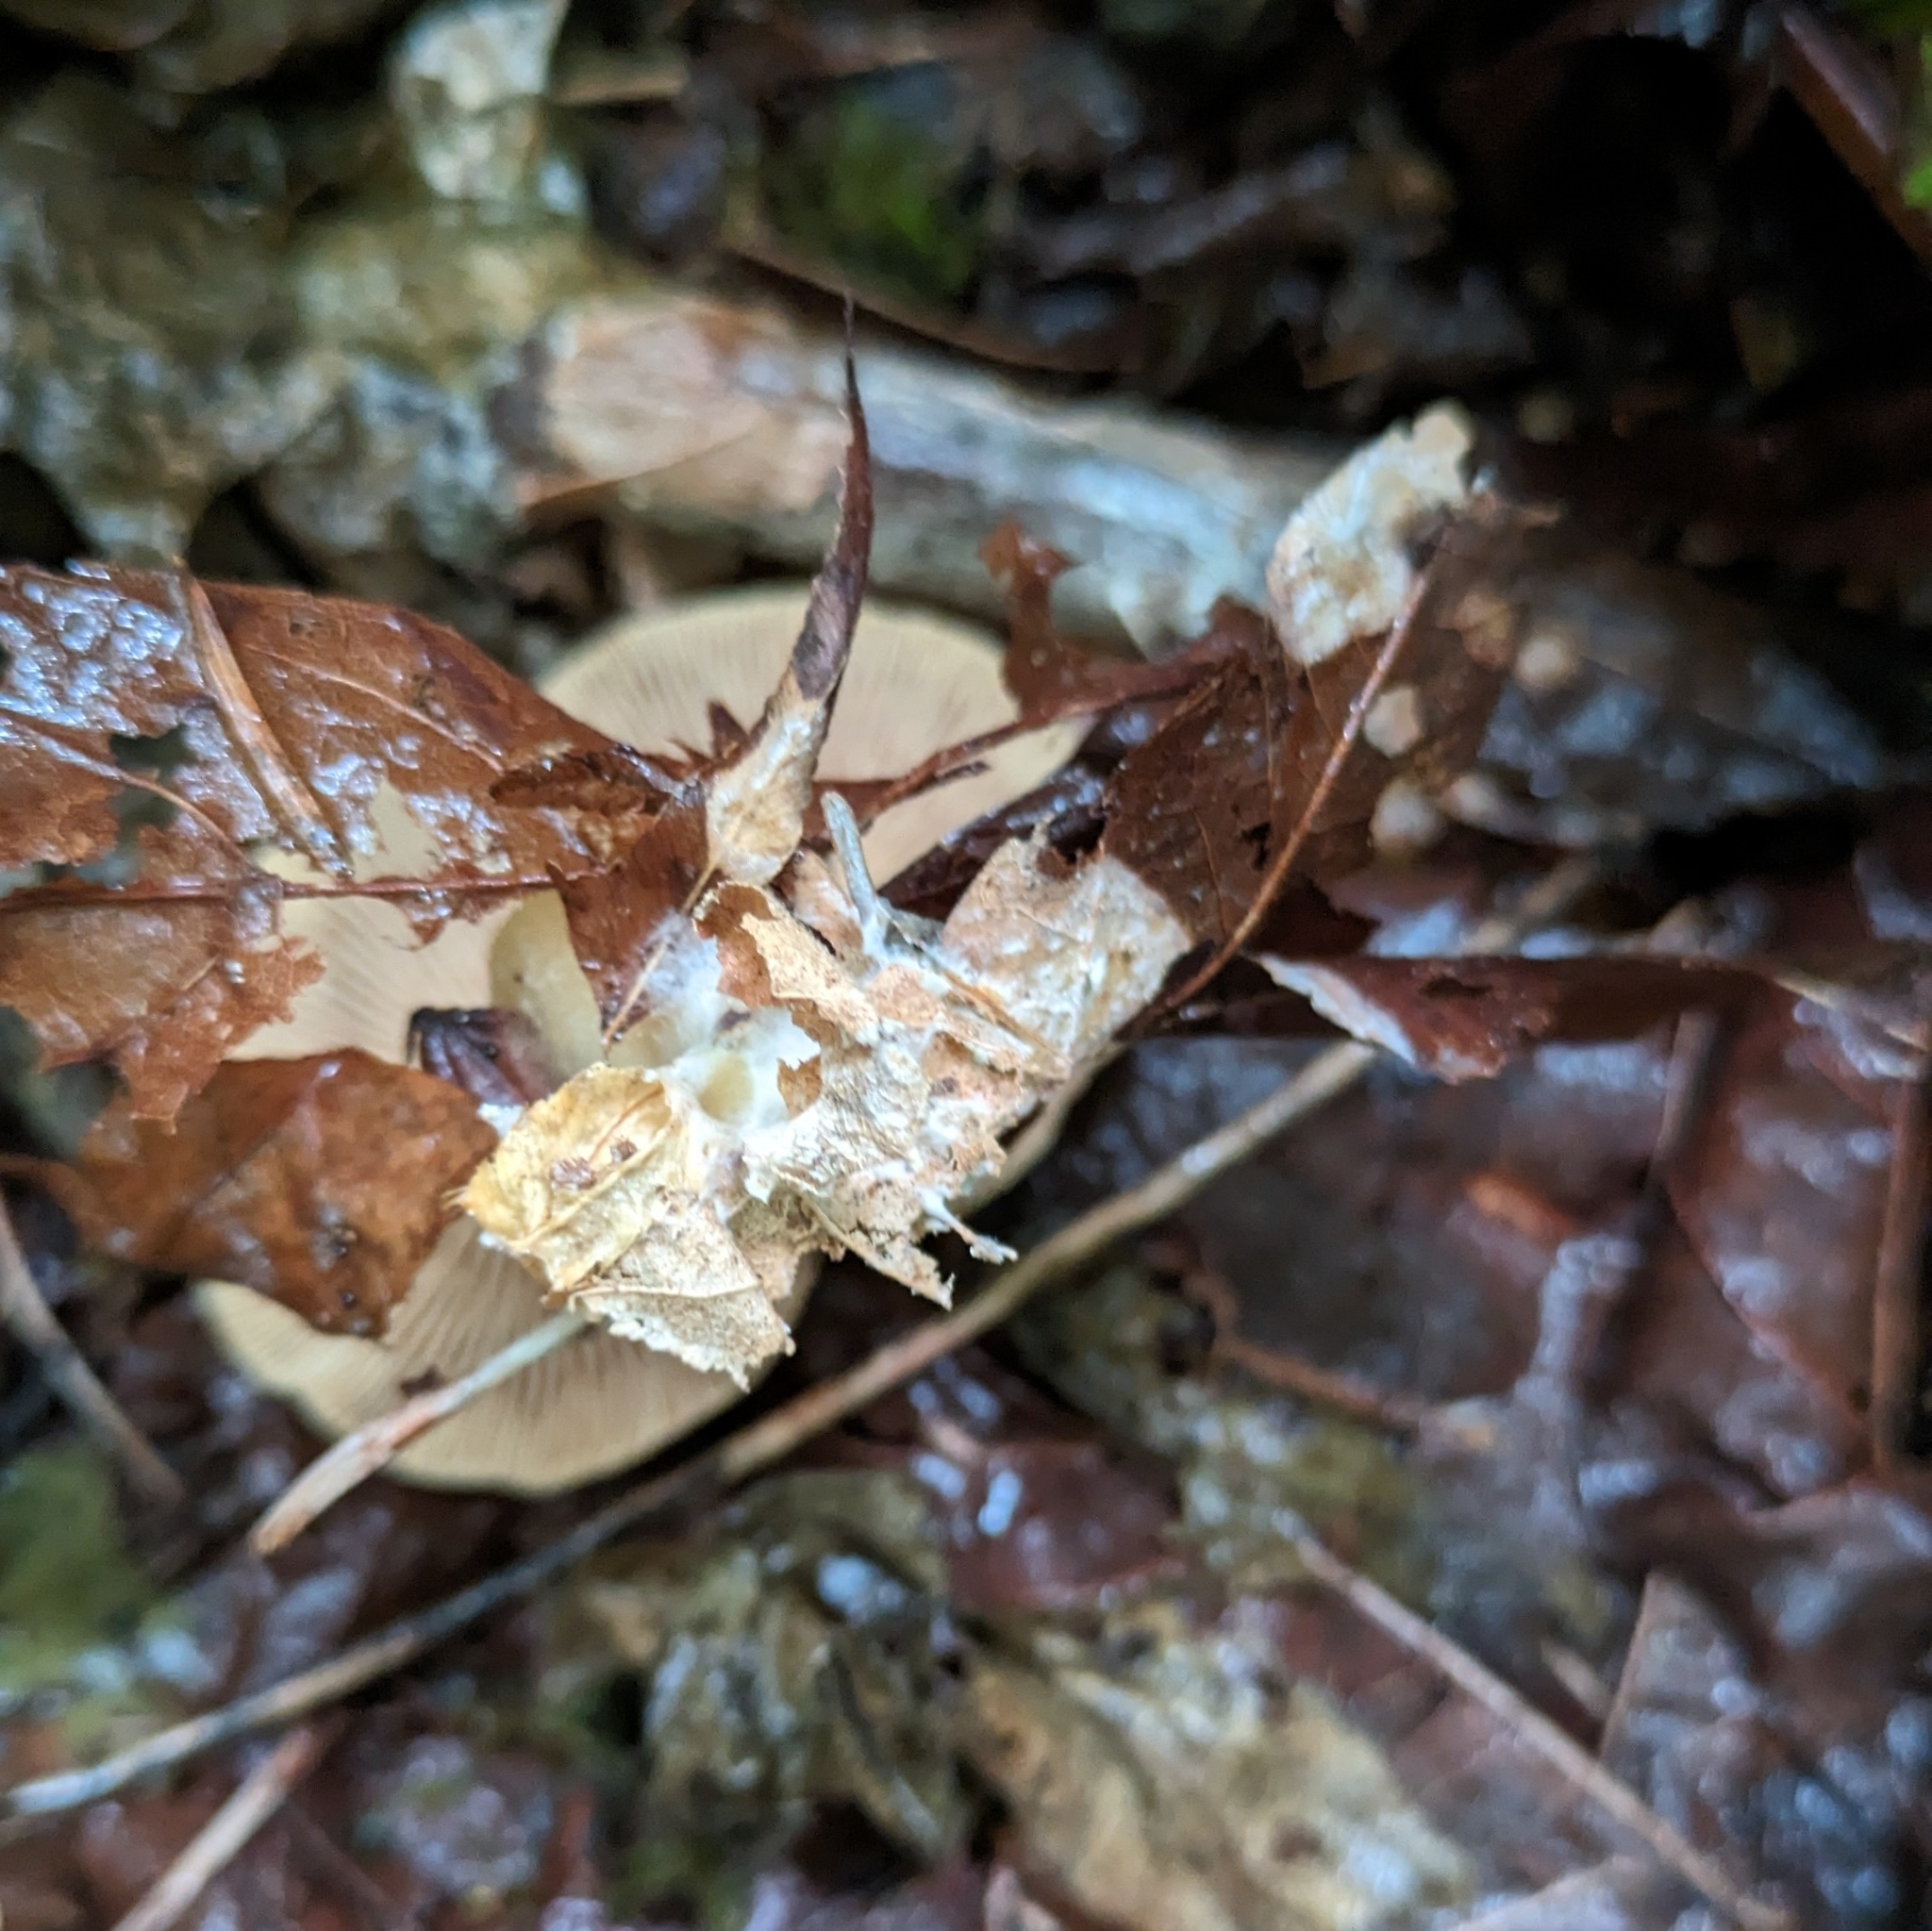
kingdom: Fungi
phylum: Basidiomycota
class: Agaricomycetes
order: Agaricales
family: Omphalotaceae
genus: Collybiopsis
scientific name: Collybiopsis peronata
